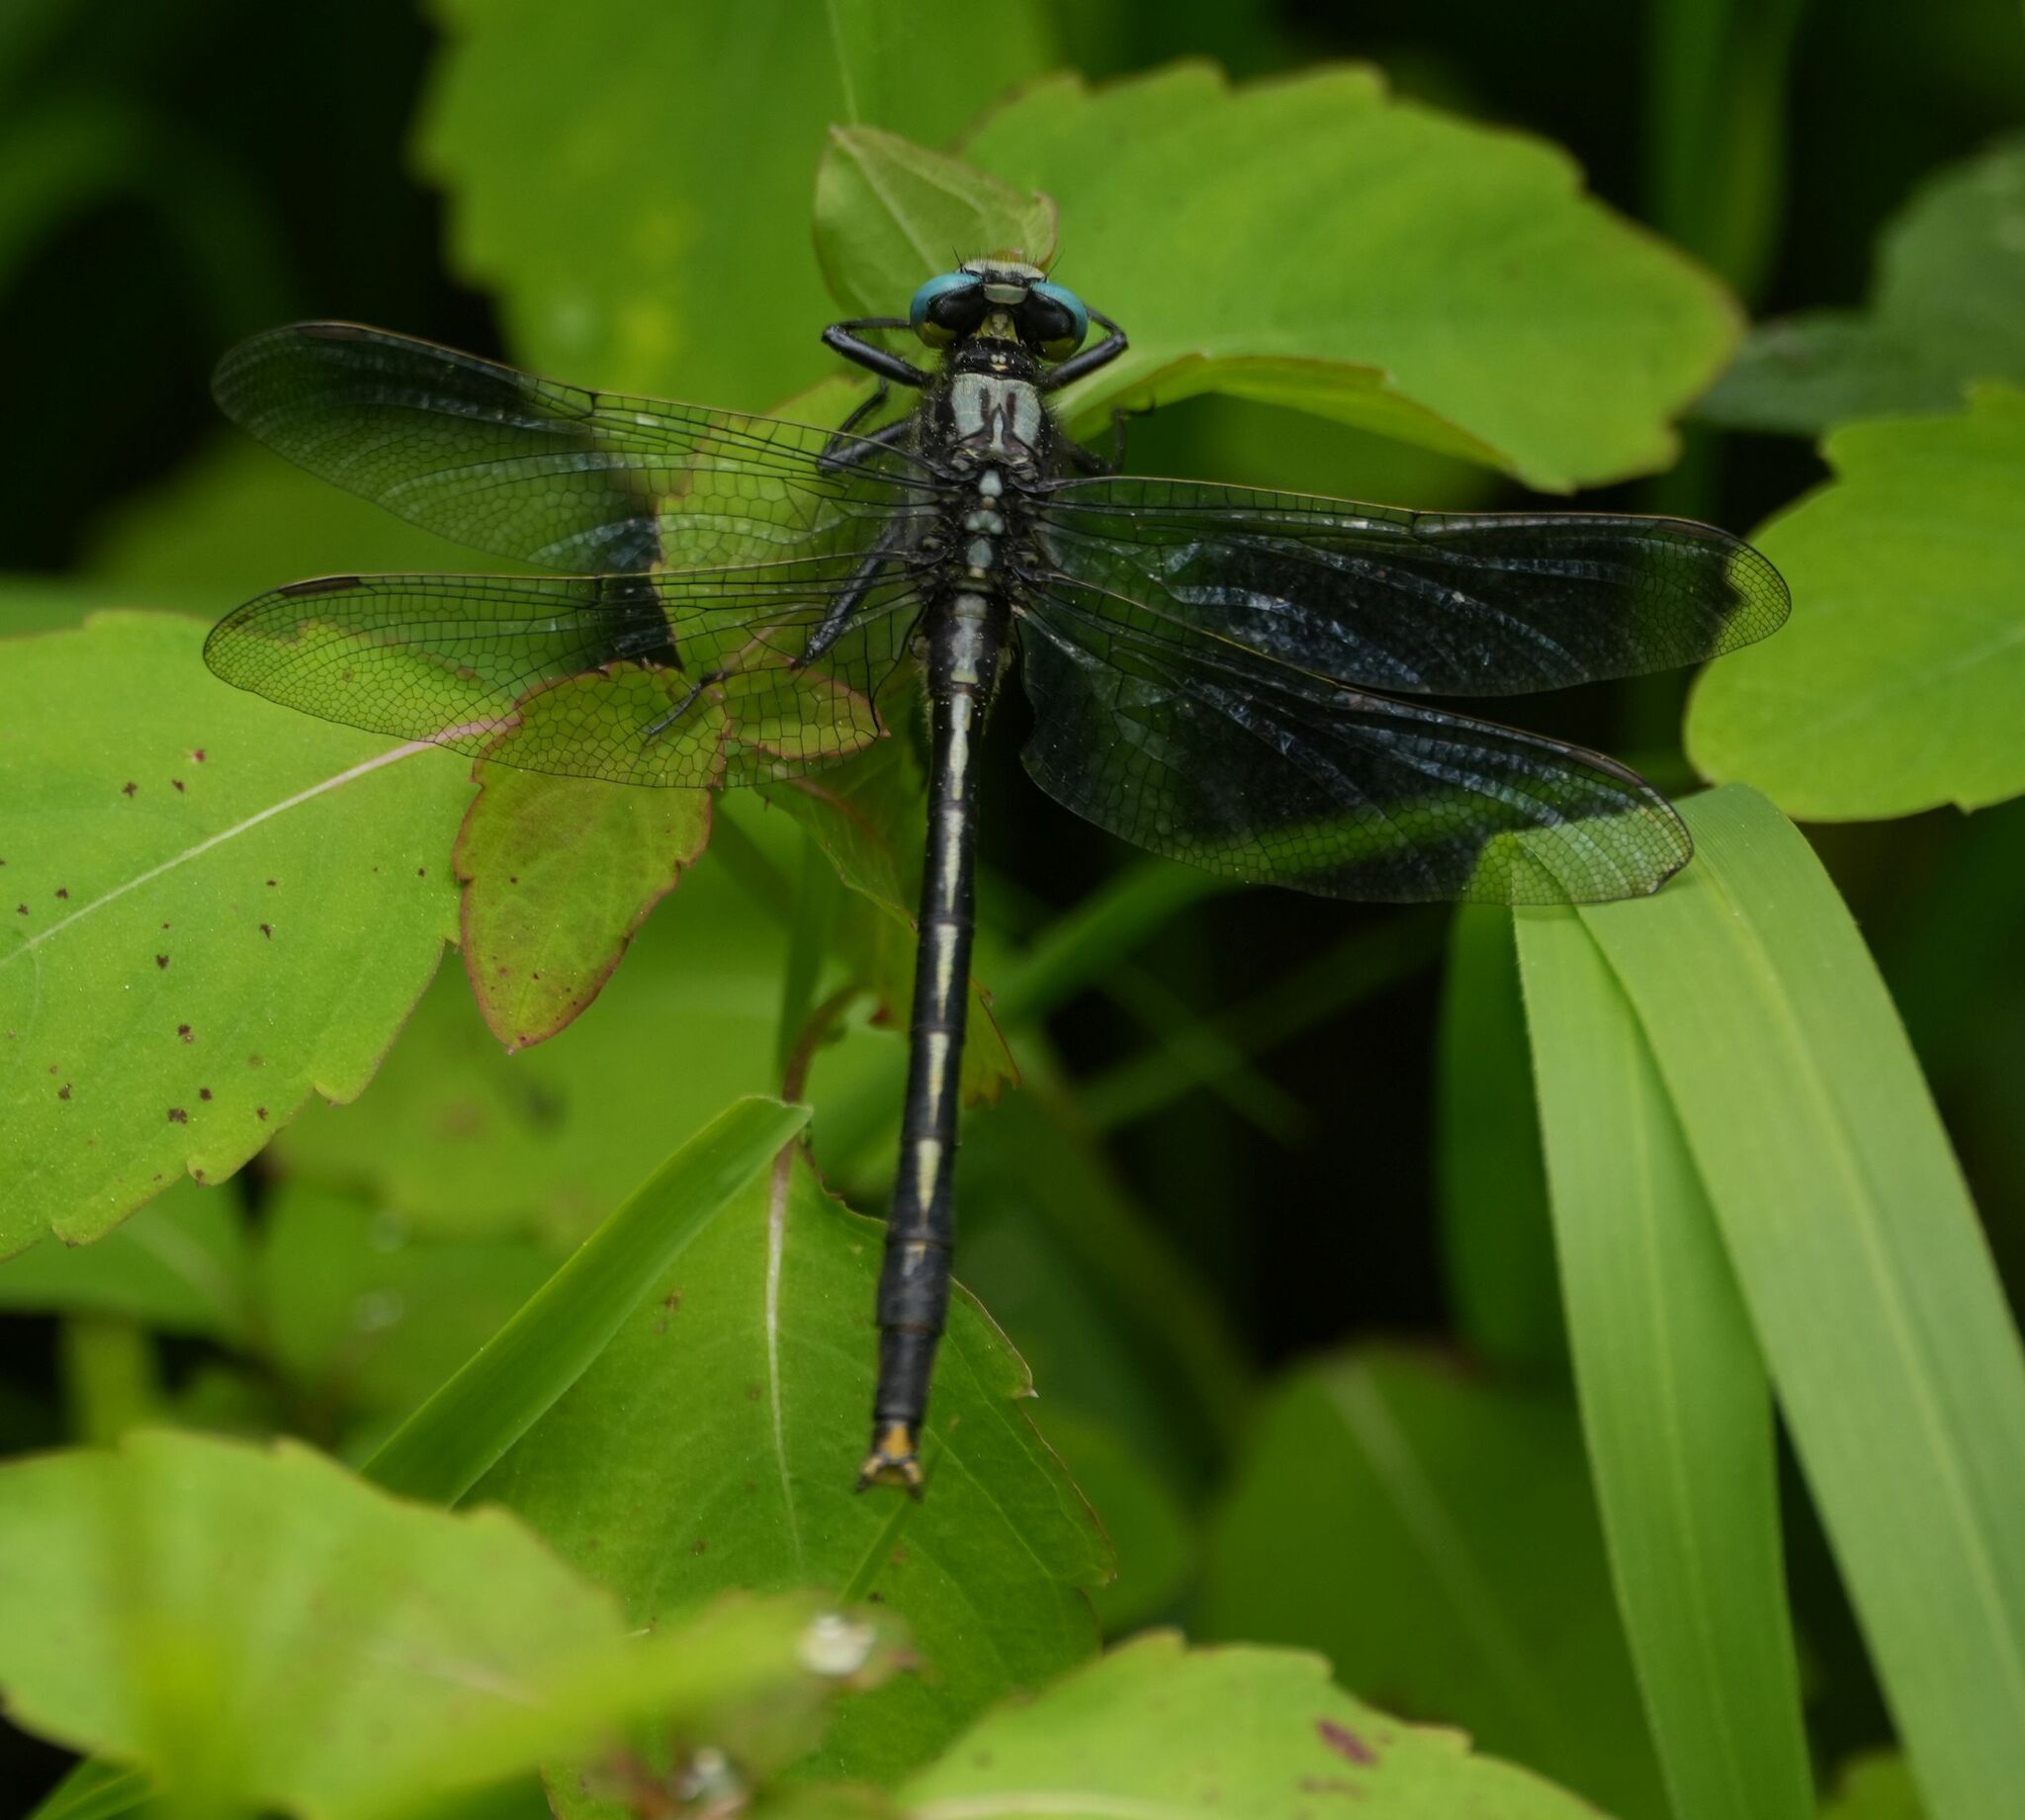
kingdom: Animalia
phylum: Arthropoda
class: Insecta
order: Odonata
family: Gomphidae
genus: Arigomphus
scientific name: Arigomphus furcifer
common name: Lilypad clubtail
